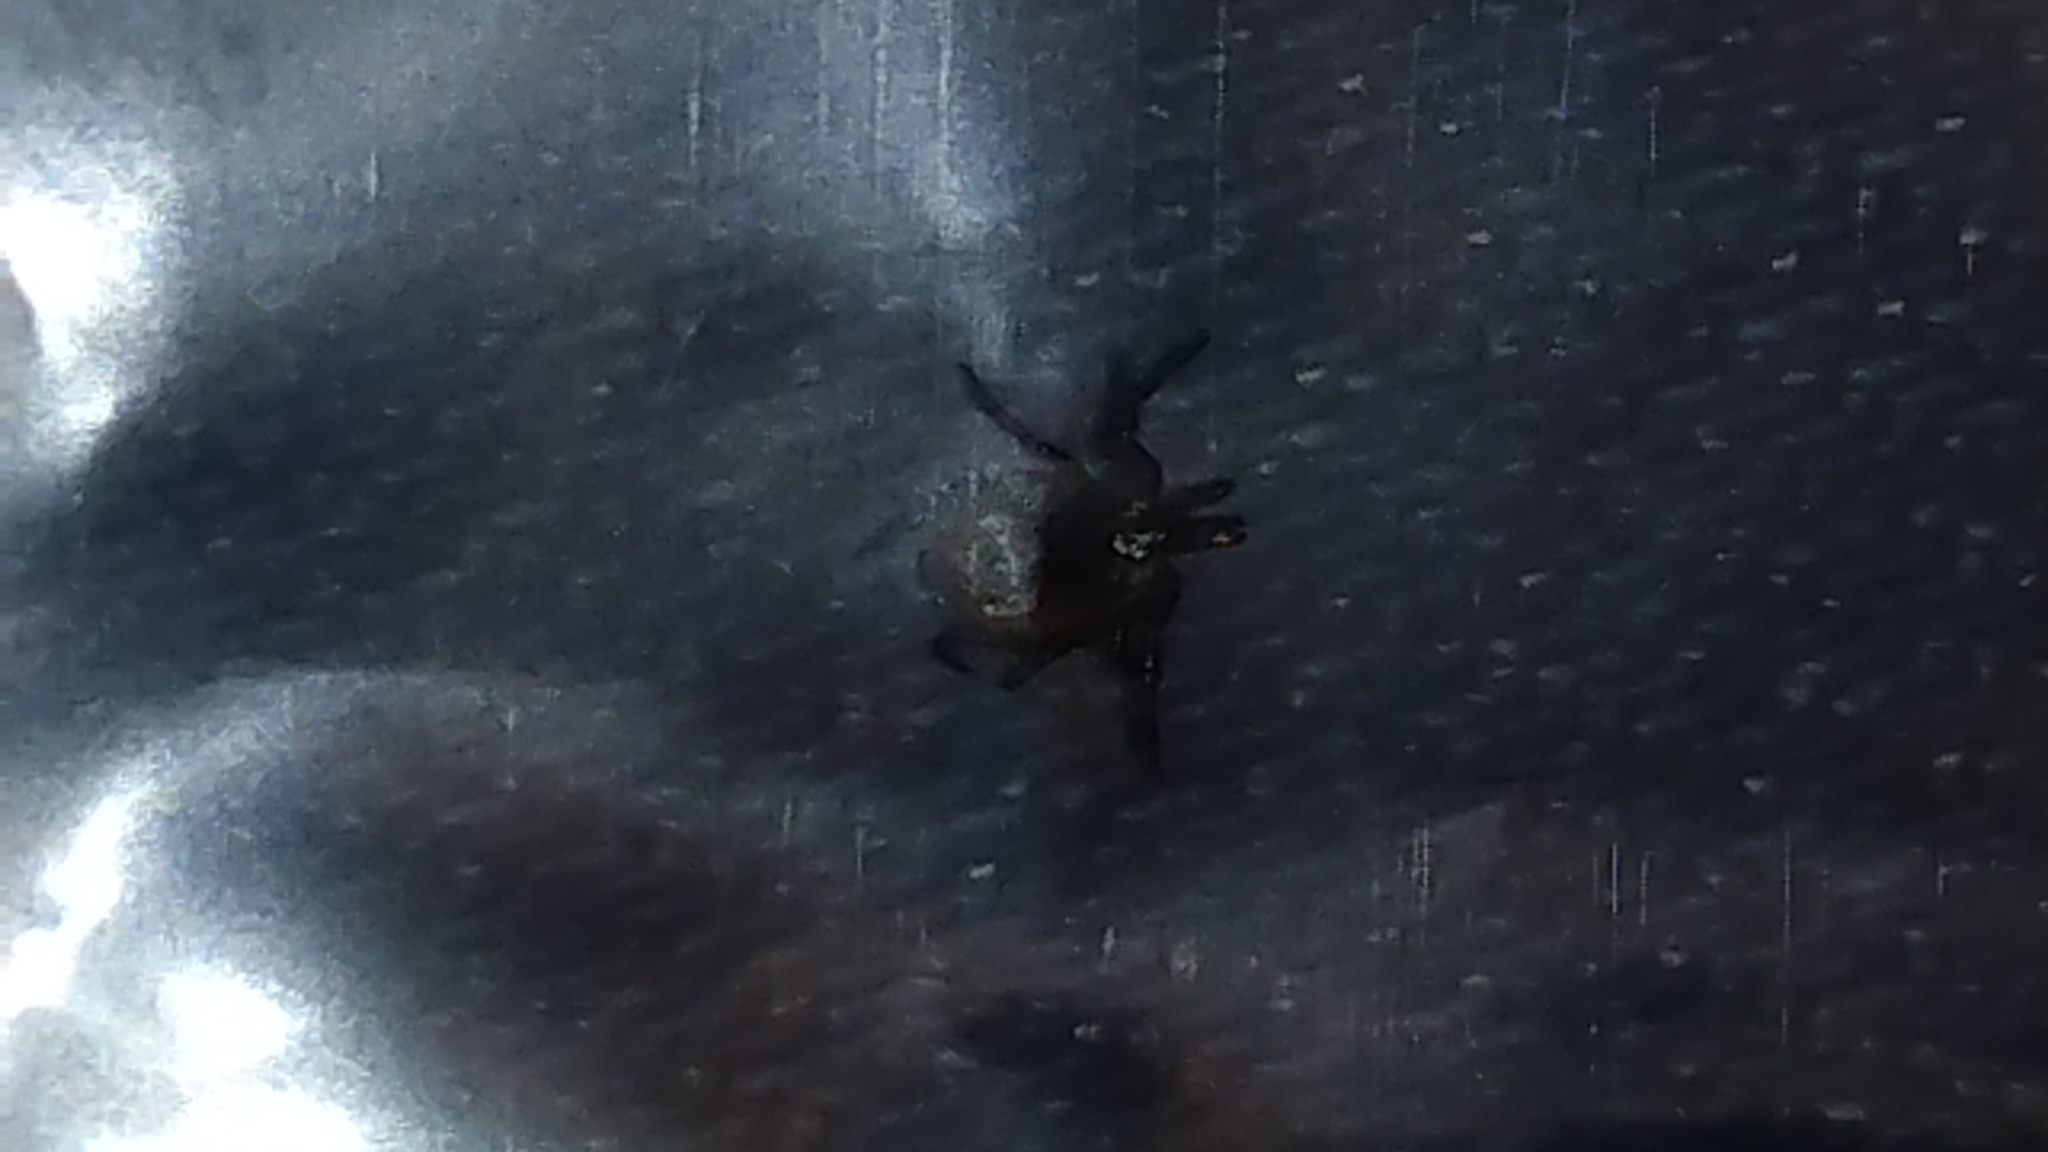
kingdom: Animalia
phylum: Arthropoda
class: Arachnida
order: Ixodida
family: Ixodidae
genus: Ixodes
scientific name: Ixodes scapularis
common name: Black legged tick
